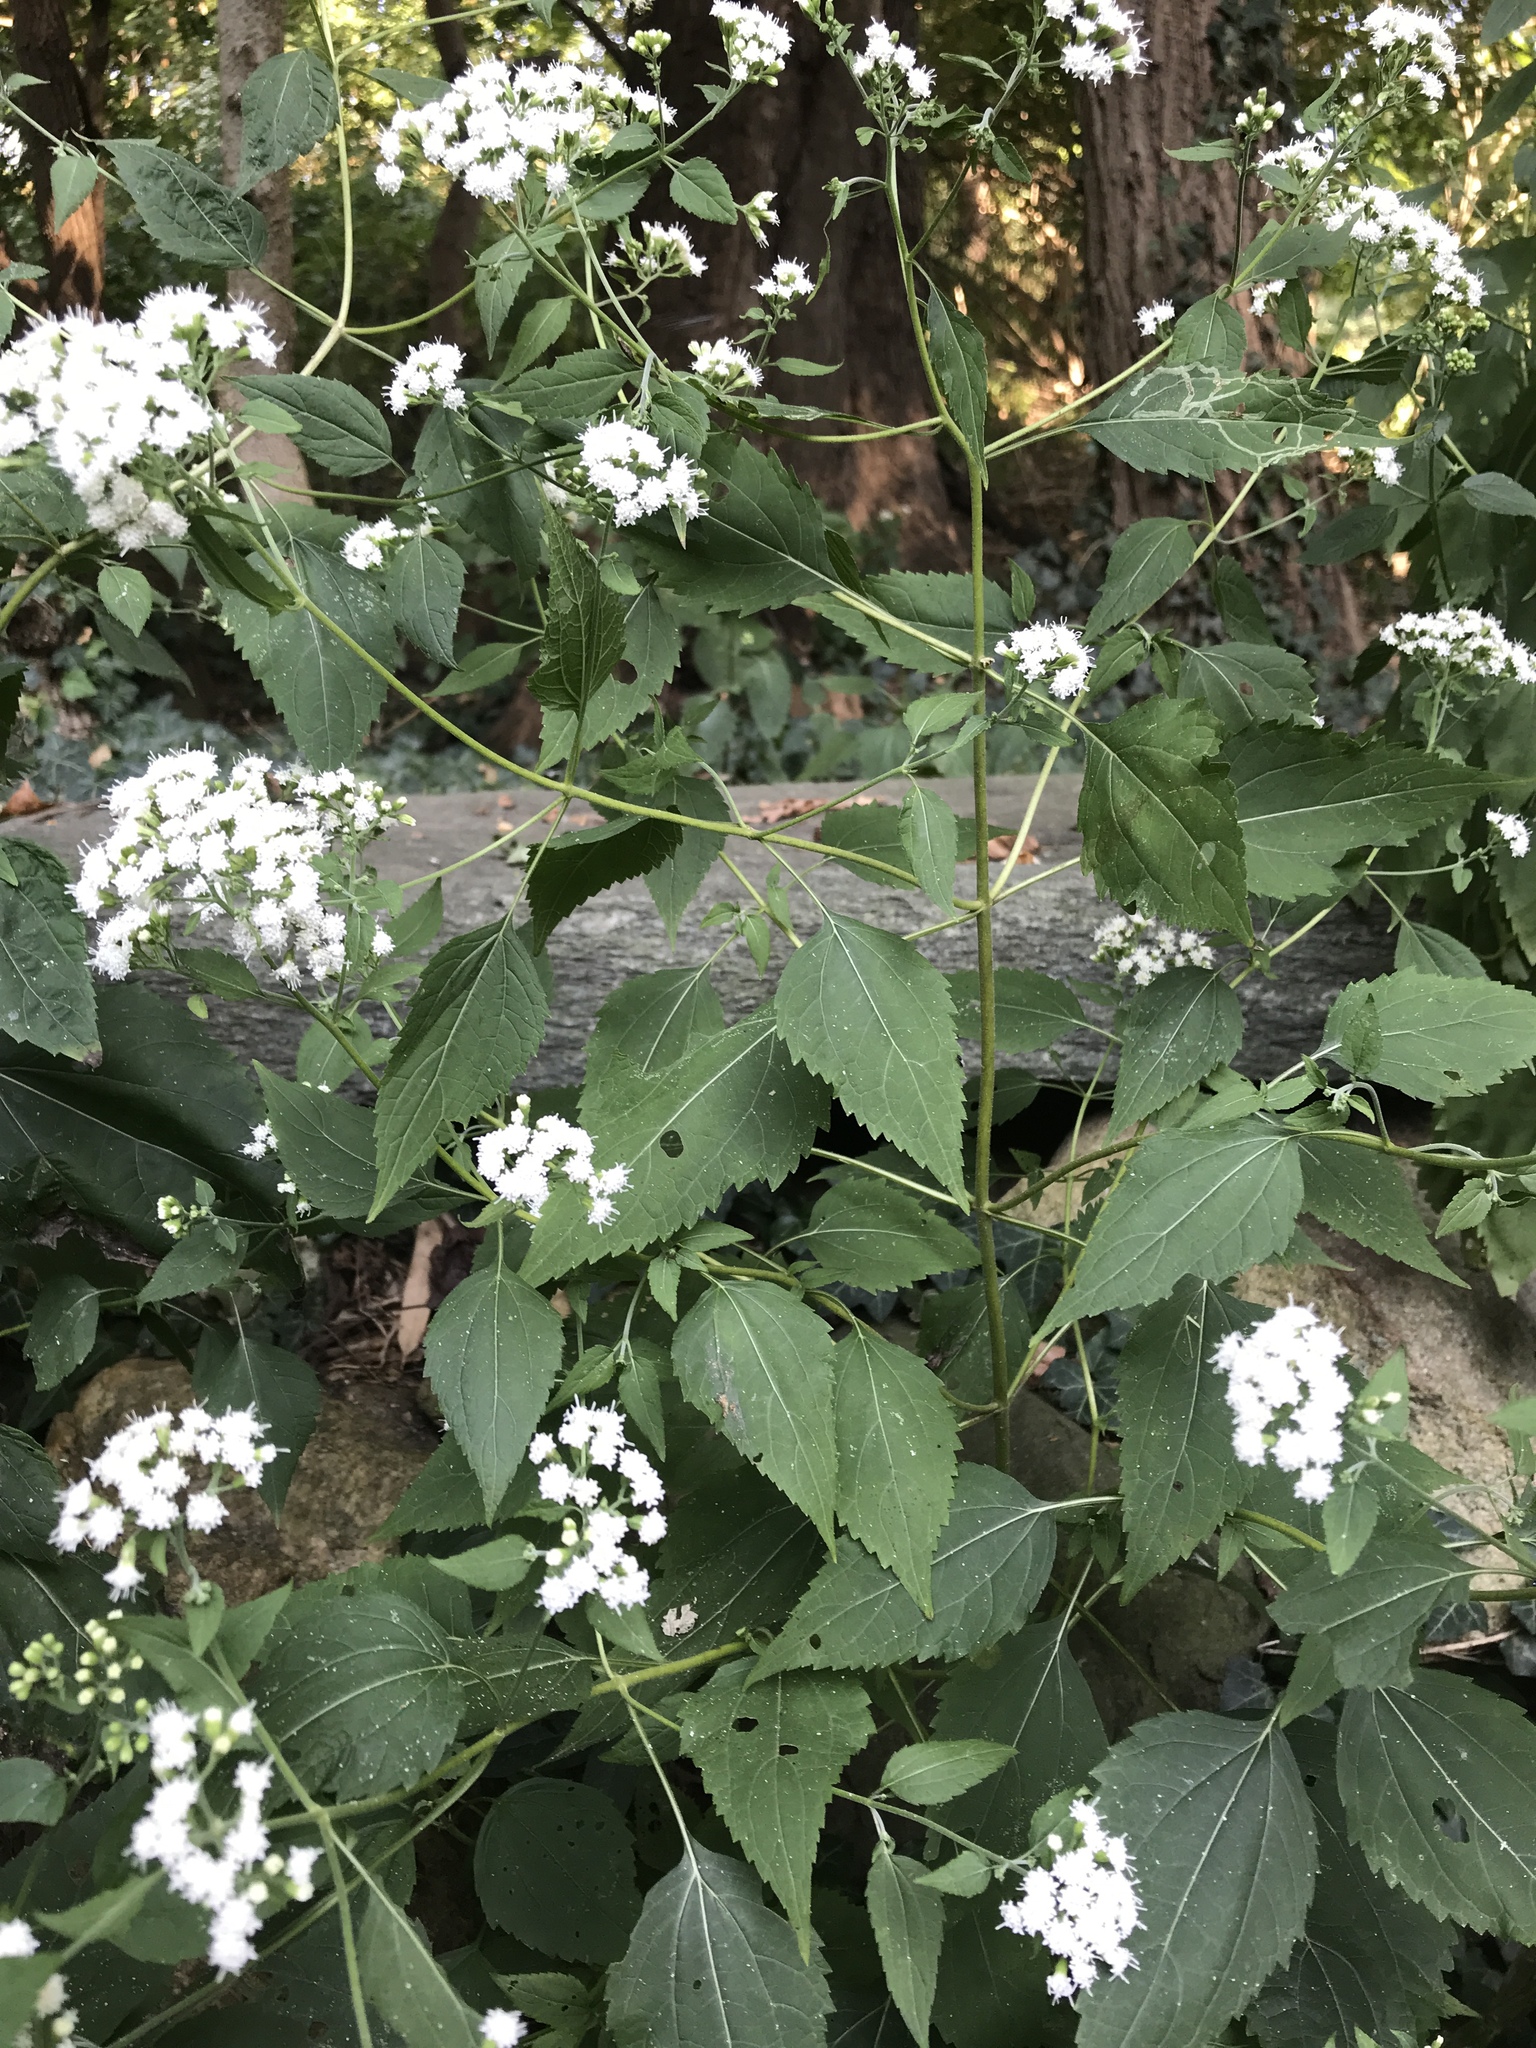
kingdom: Plantae
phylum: Tracheophyta
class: Magnoliopsida
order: Asterales
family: Asteraceae
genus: Ageratina
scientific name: Ageratina altissima
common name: White snakeroot
